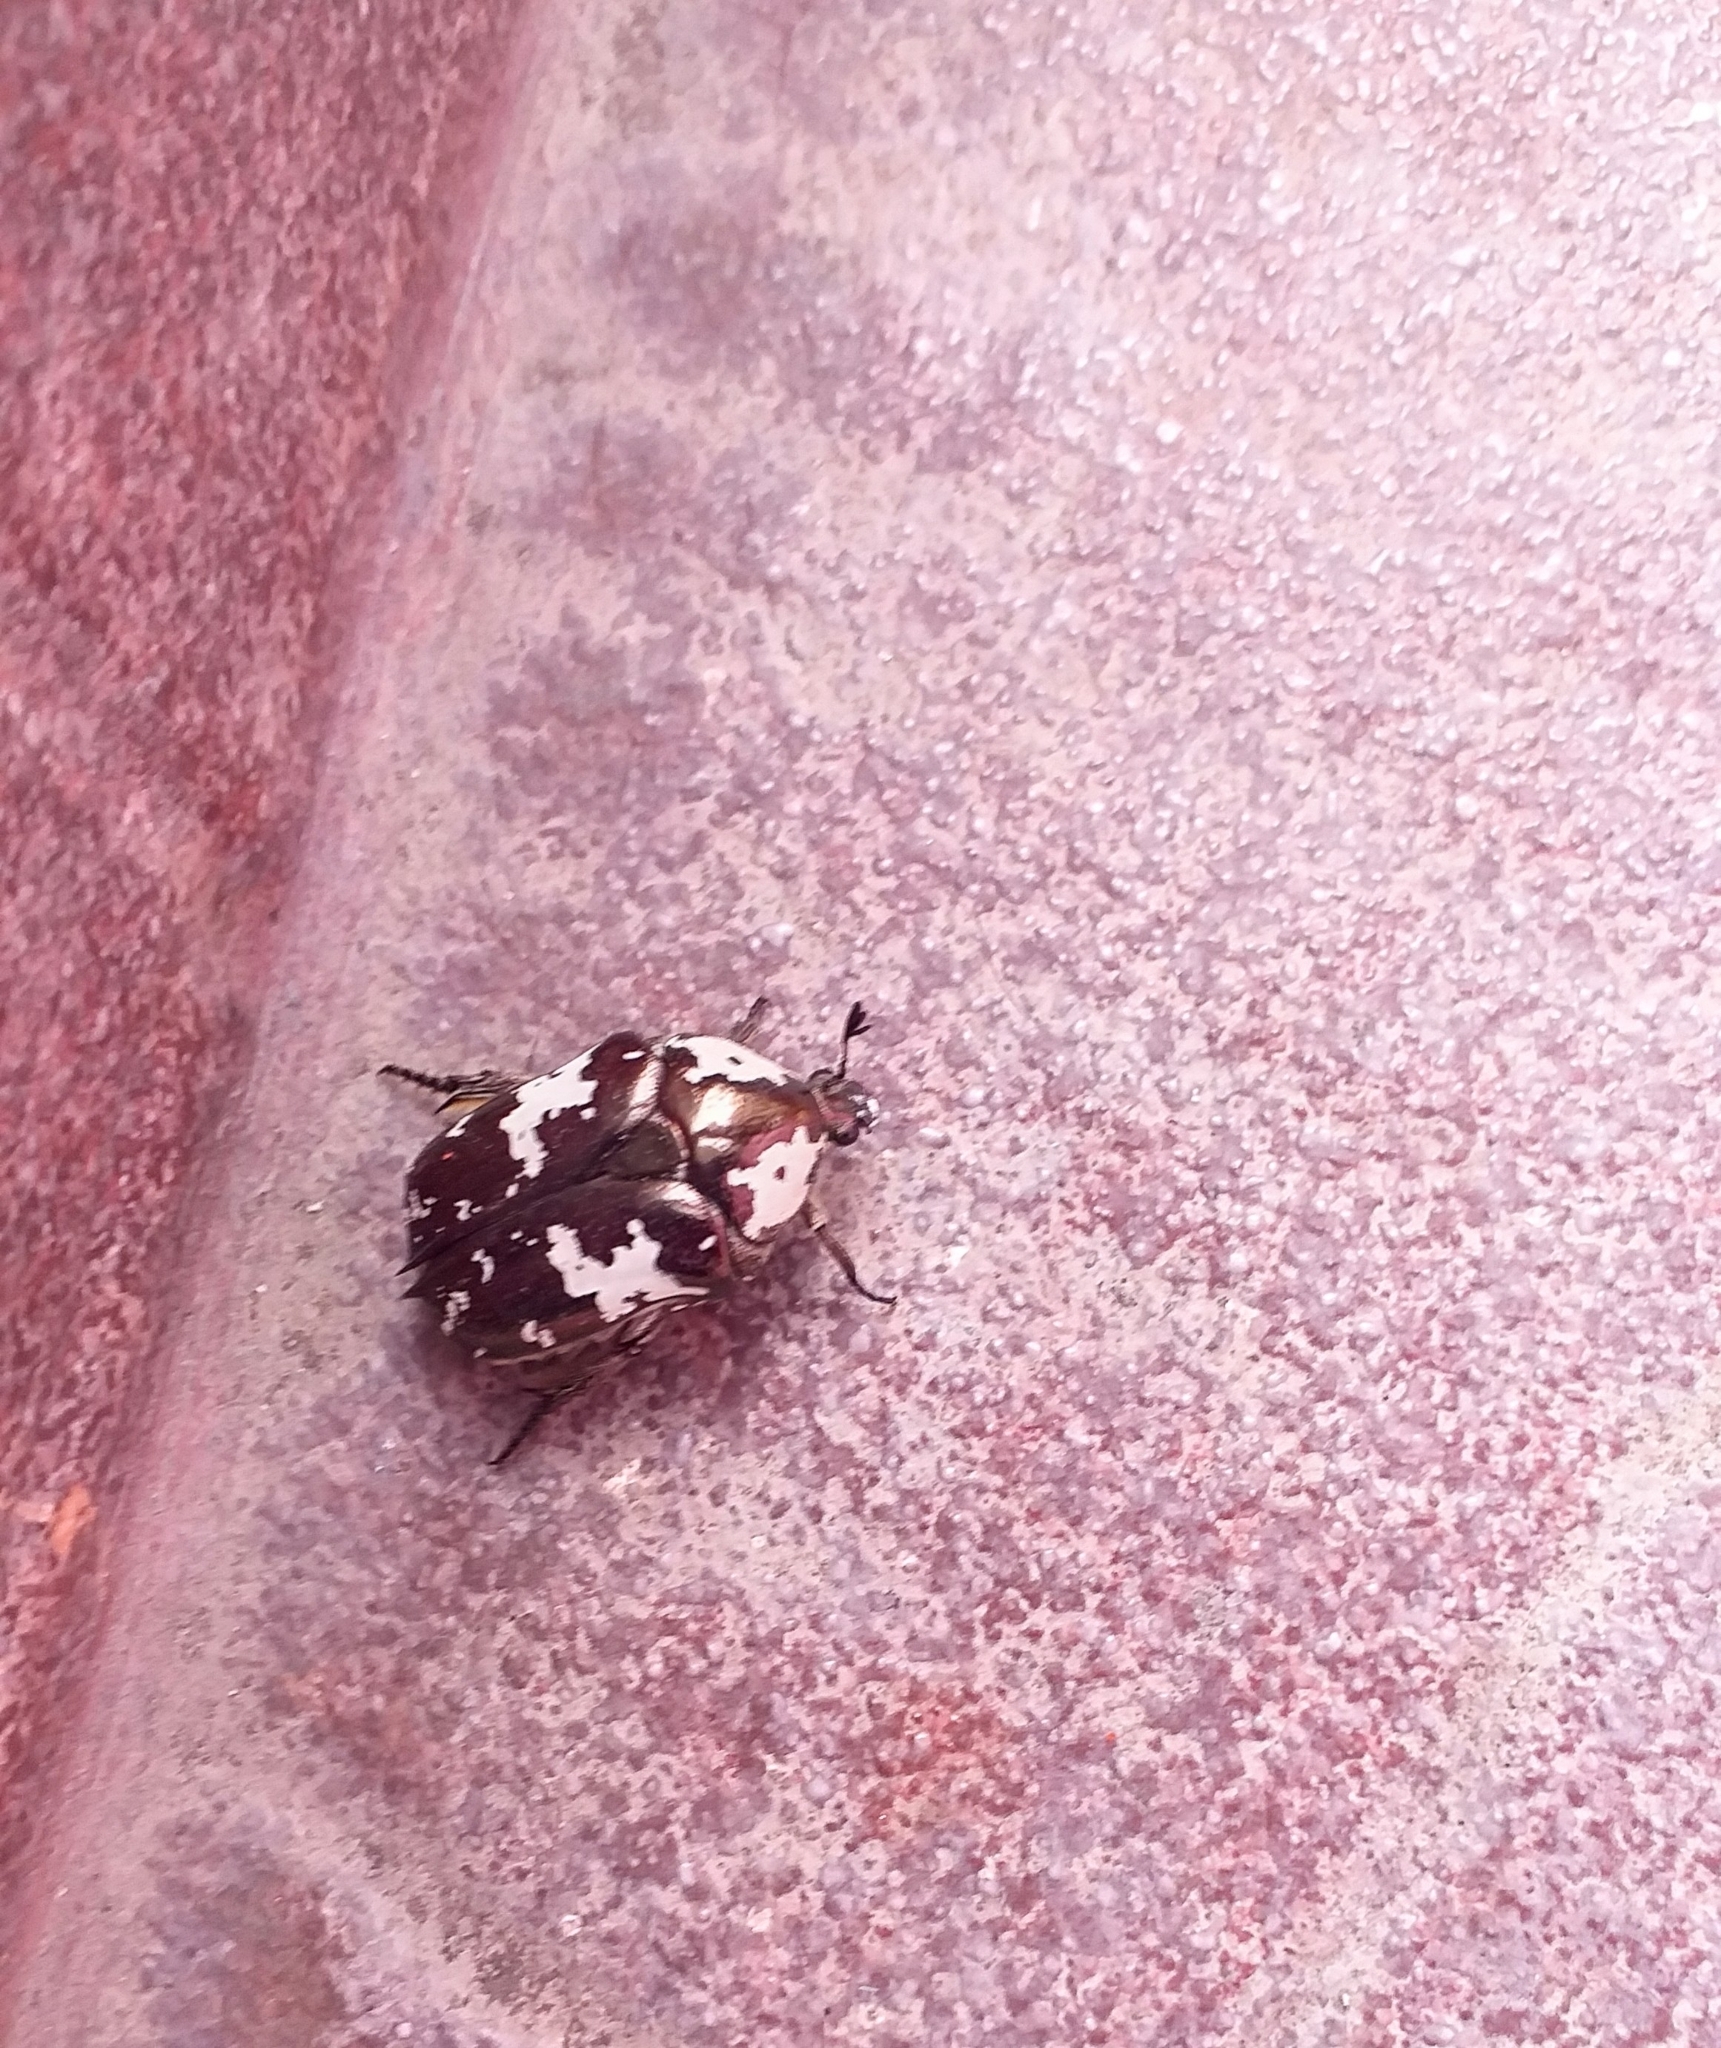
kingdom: Animalia
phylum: Arthropoda
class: Insecta
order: Coleoptera
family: Scarabaeidae
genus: Protaetia
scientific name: Protaetia aurichalcea
